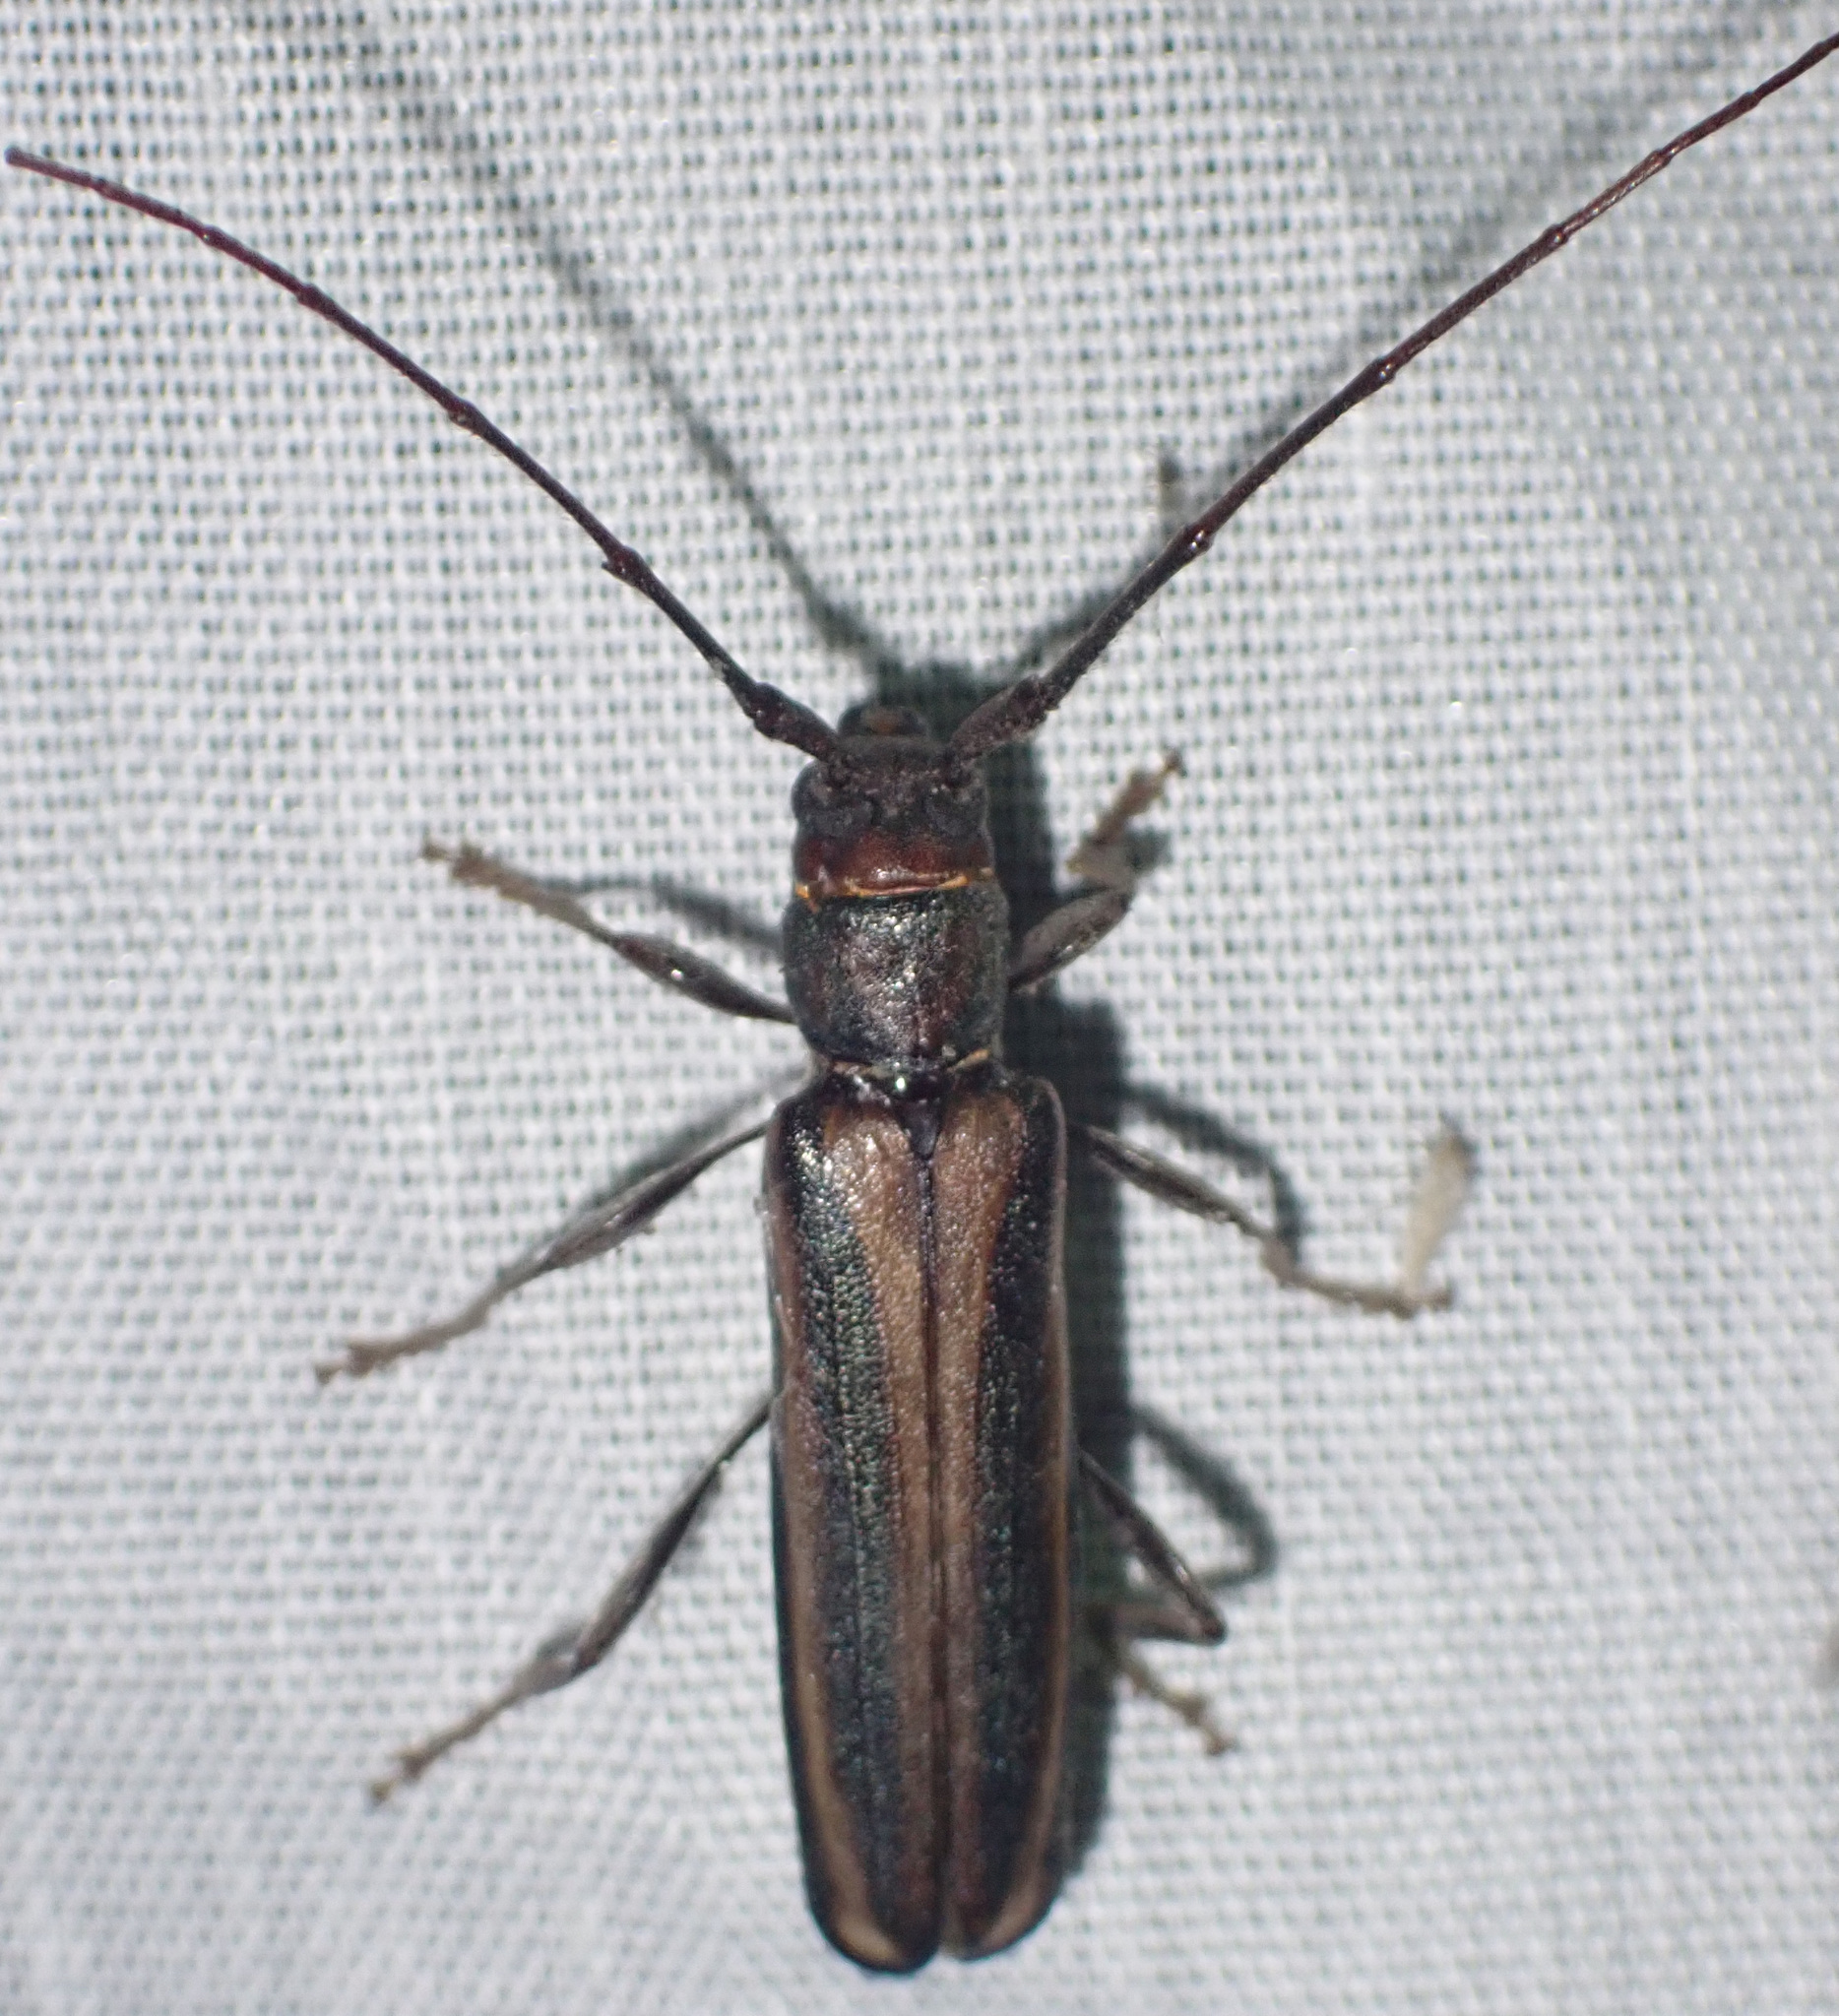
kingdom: Animalia
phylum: Arthropoda
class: Insecta
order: Coleoptera
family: Cerambycidae
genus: Xystrocera
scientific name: Xystrocera dispar
